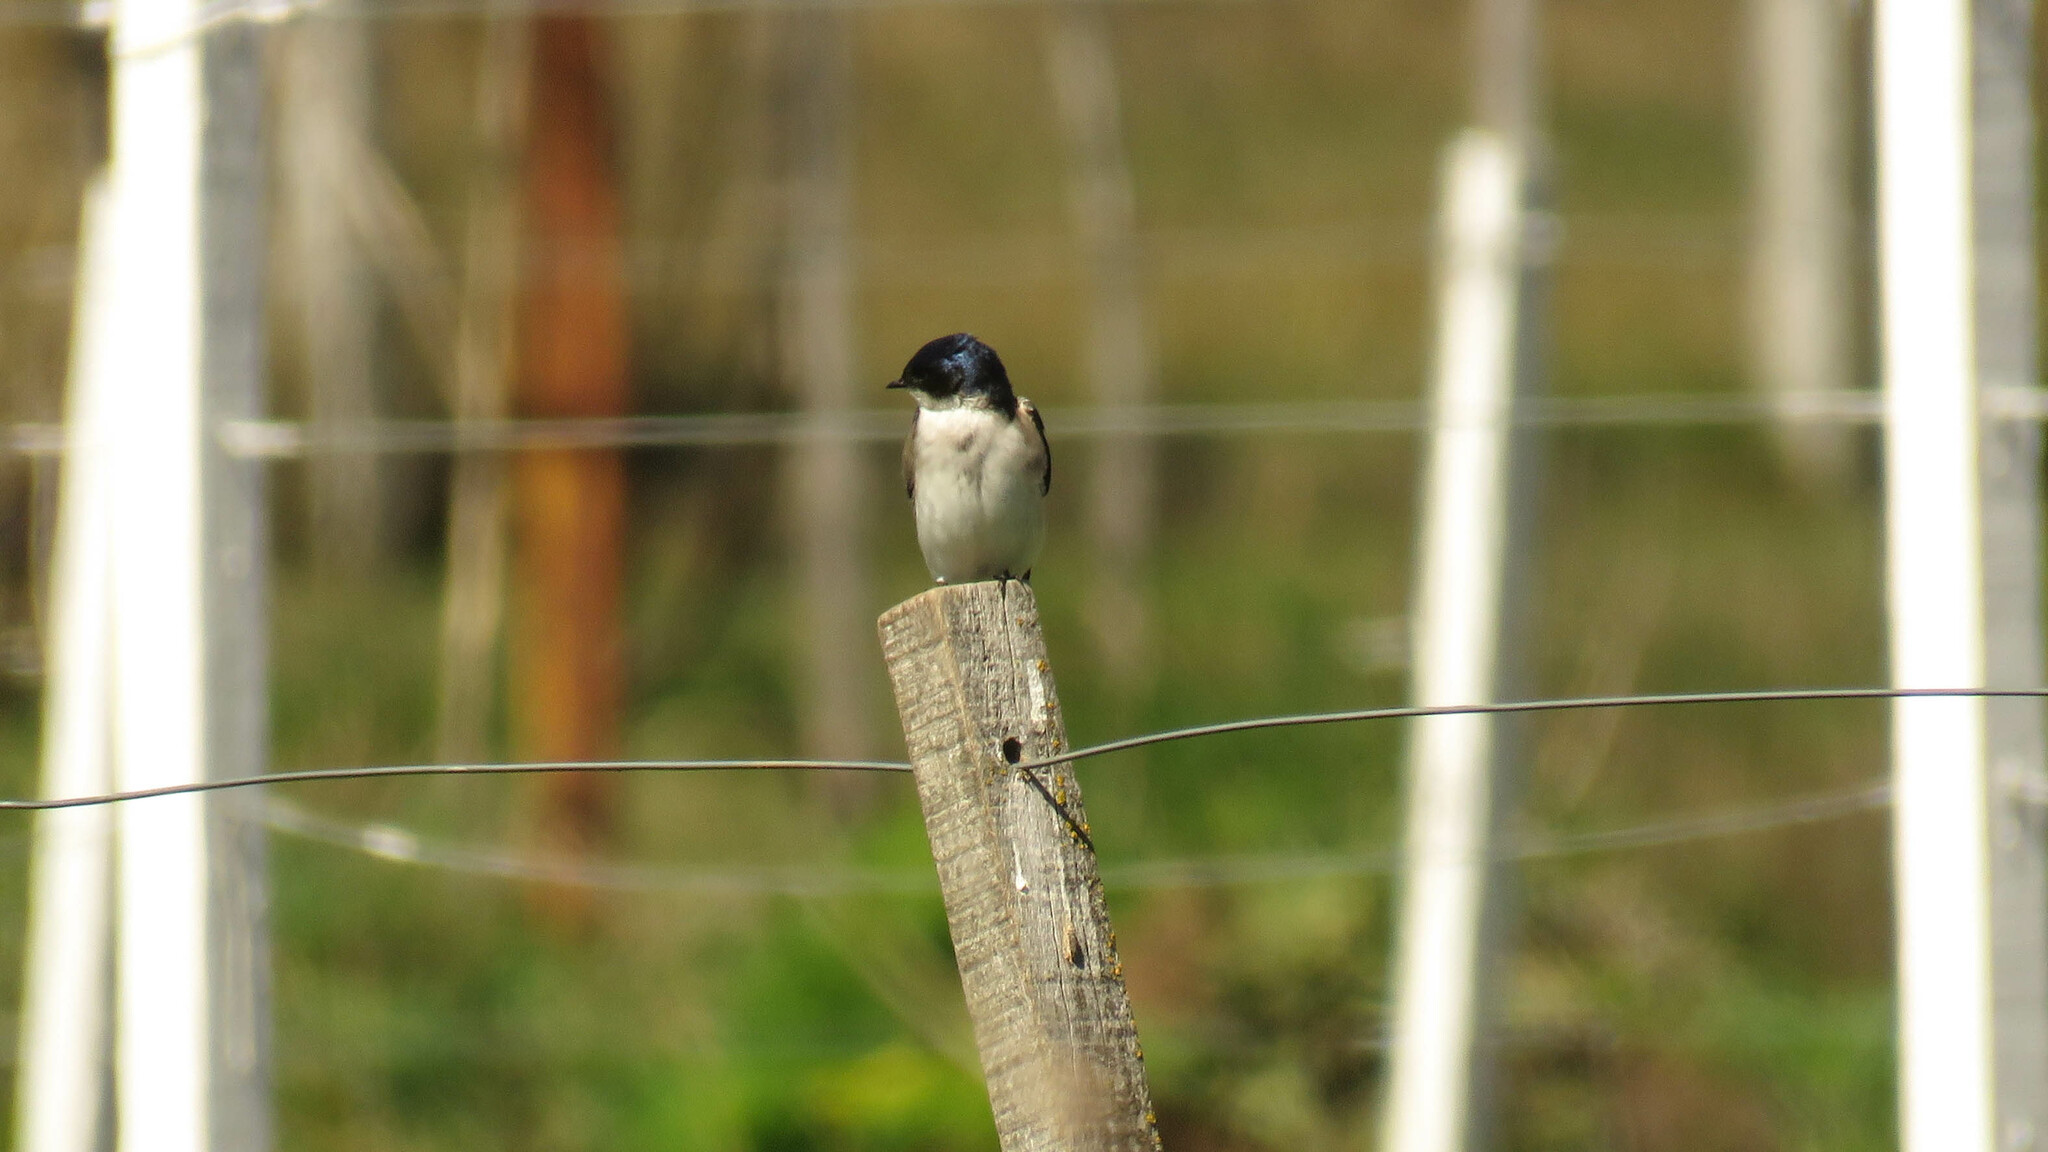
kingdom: Animalia
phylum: Chordata
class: Aves
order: Passeriformes
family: Hirundinidae
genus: Tachycineta
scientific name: Tachycineta leucopyga
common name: Chilean swallow
